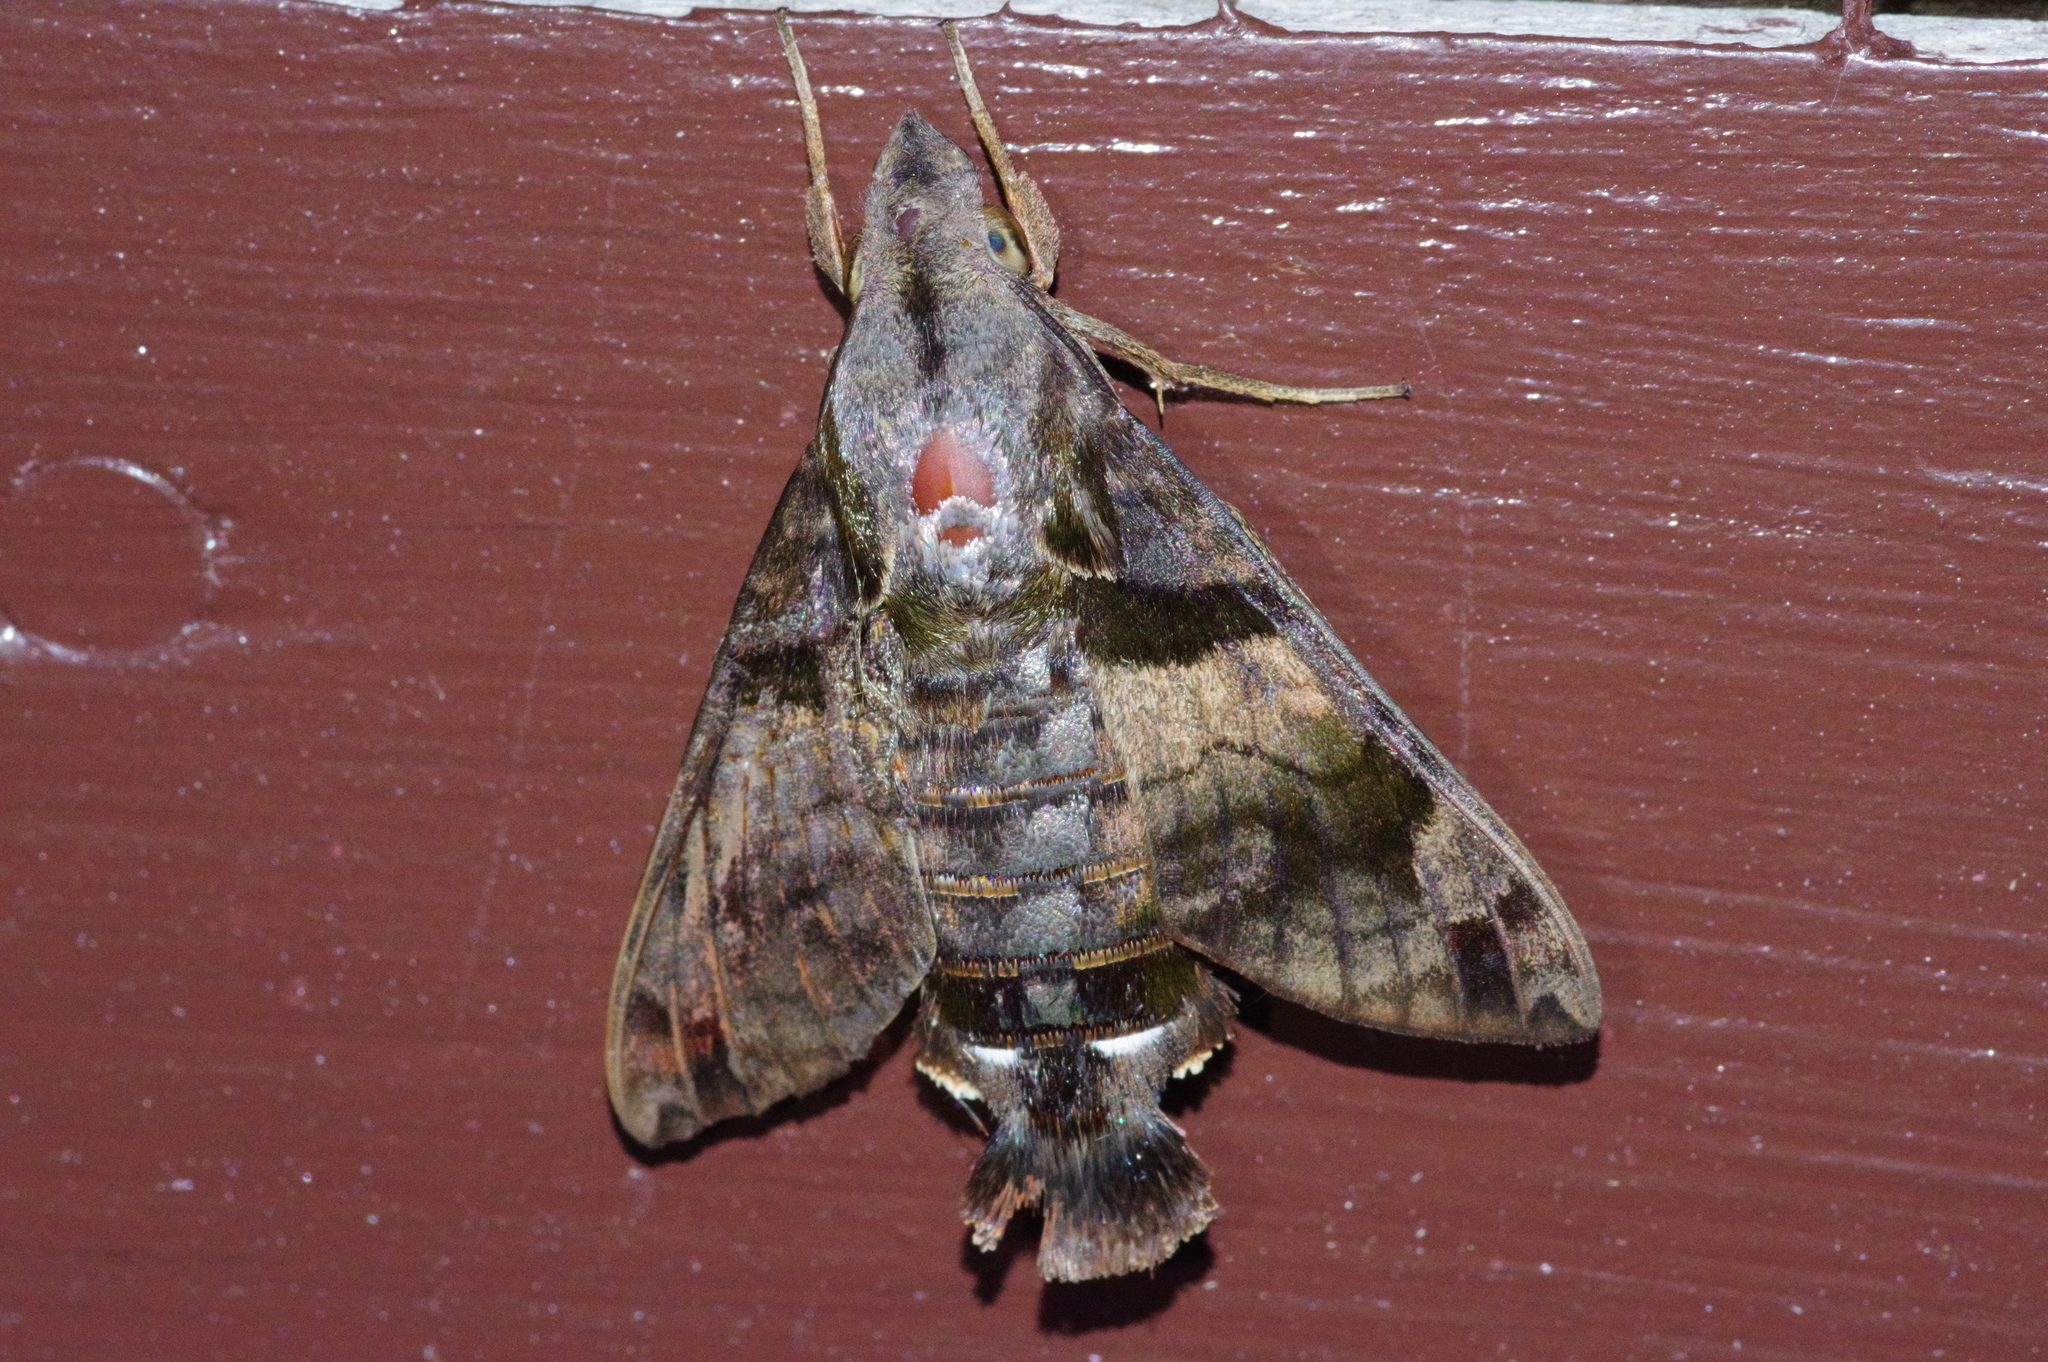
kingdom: Animalia
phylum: Arthropoda
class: Insecta
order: Lepidoptera
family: Sphingidae
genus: Macroglossum
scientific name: Macroglossum pyrrhosticta
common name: Hummingbird hawk moth
